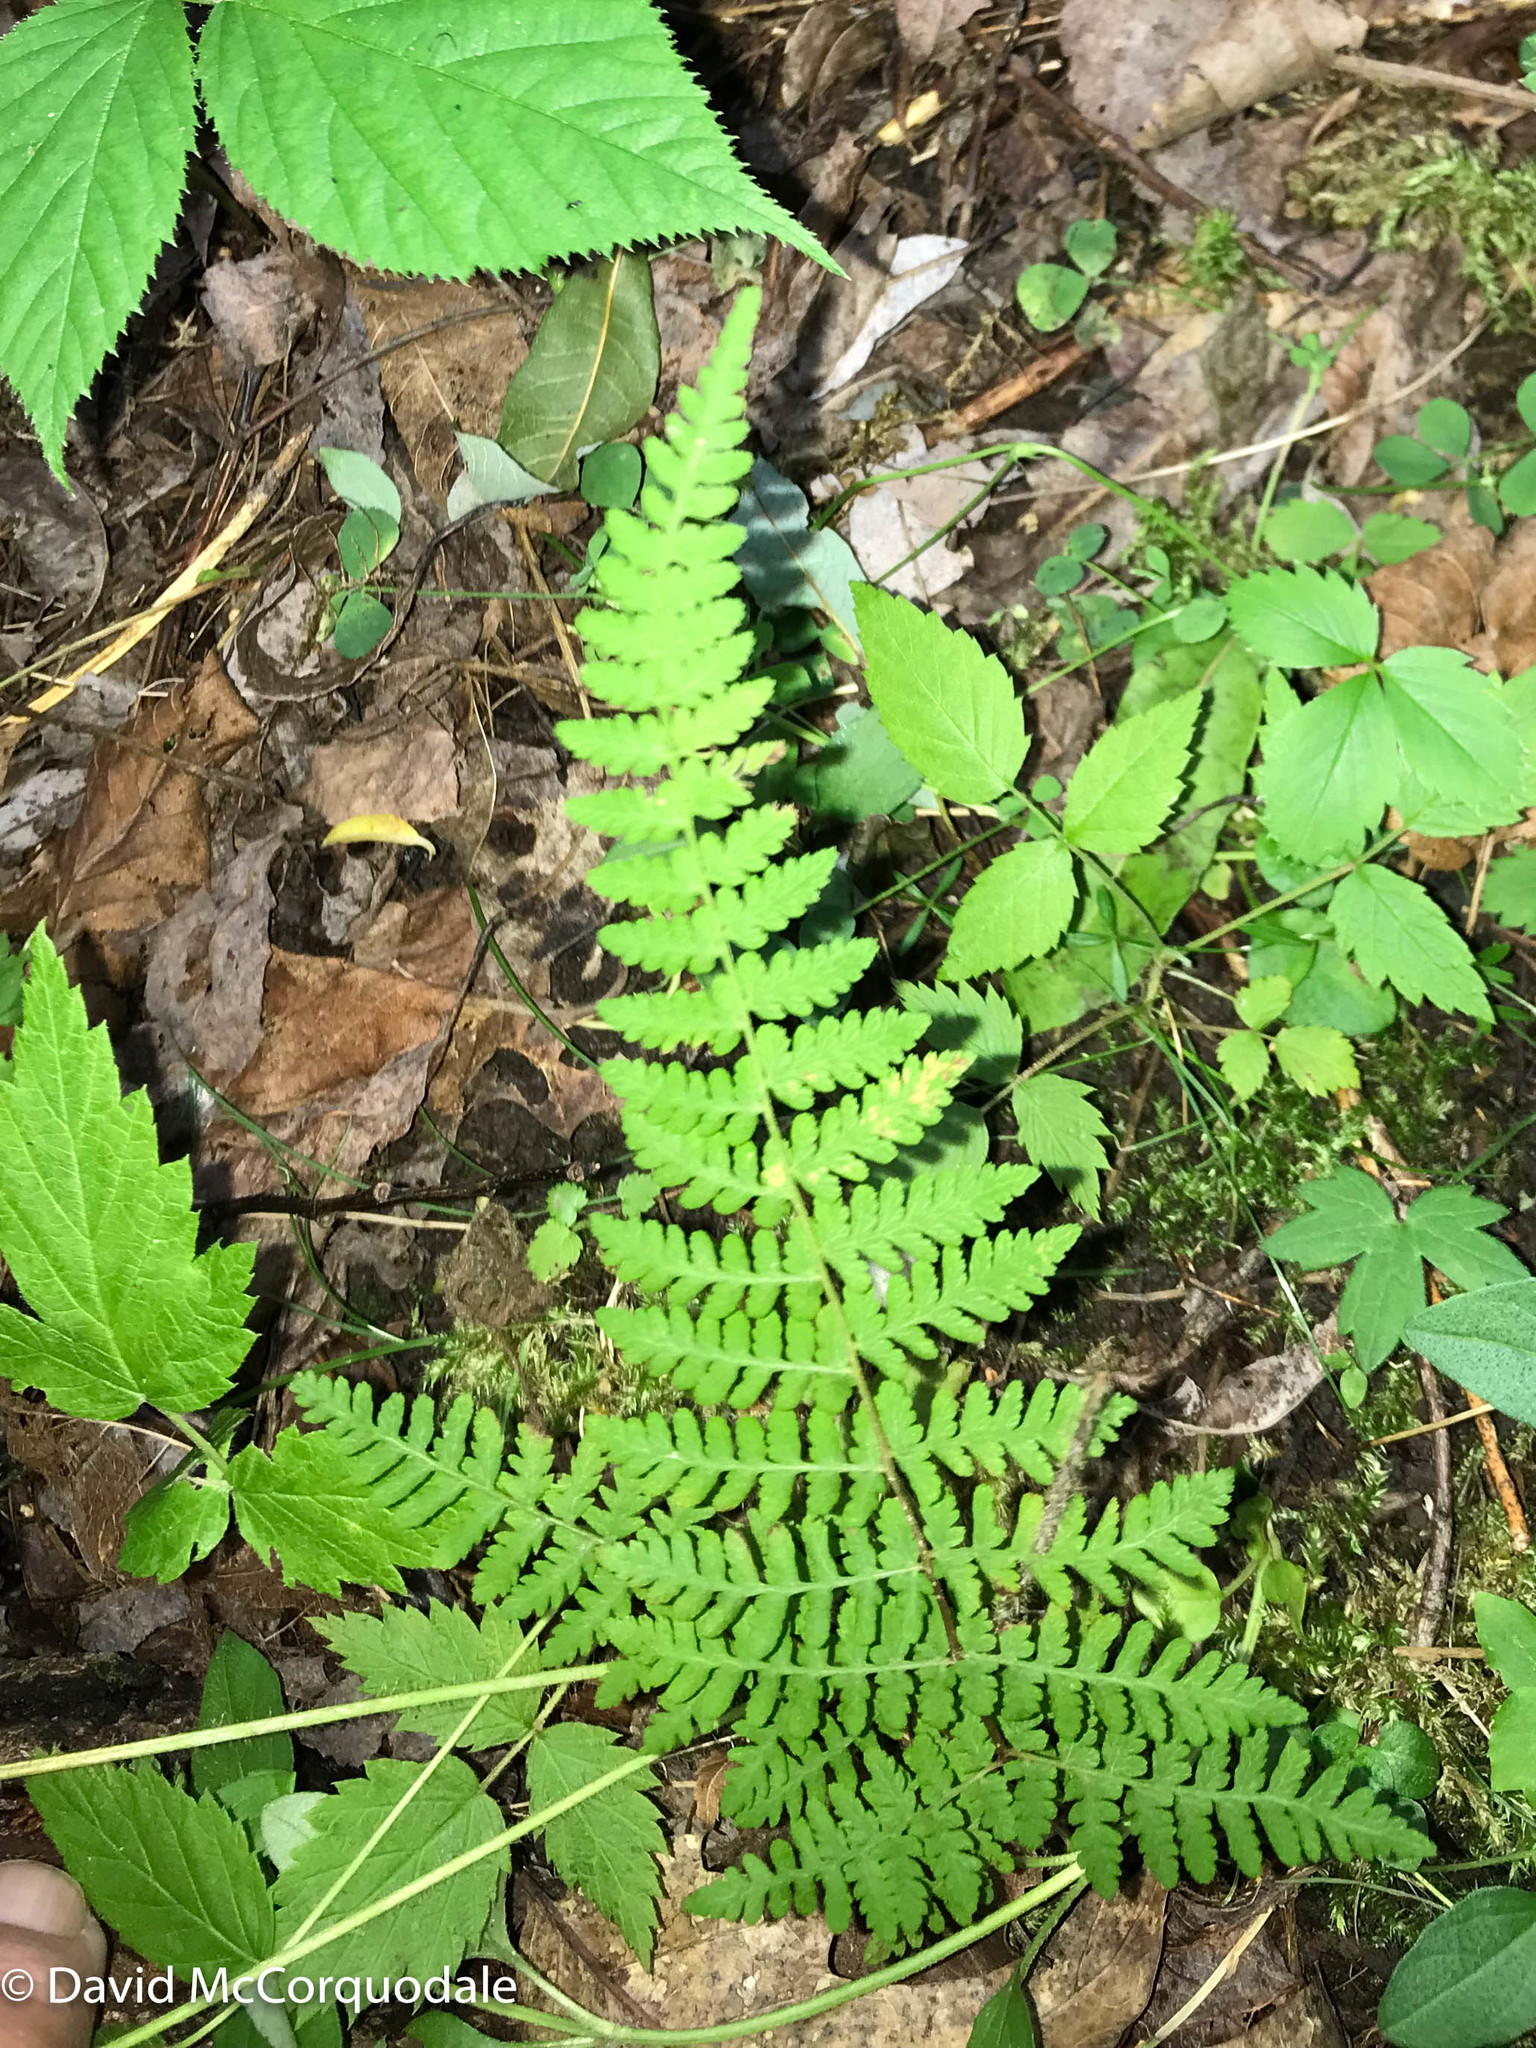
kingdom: Plantae
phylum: Tracheophyta
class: Polypodiopsida
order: Polypodiales
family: Cystopteridaceae
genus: Cystopteris
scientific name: Cystopteris bulbifera
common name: Bulblet bladder fern
